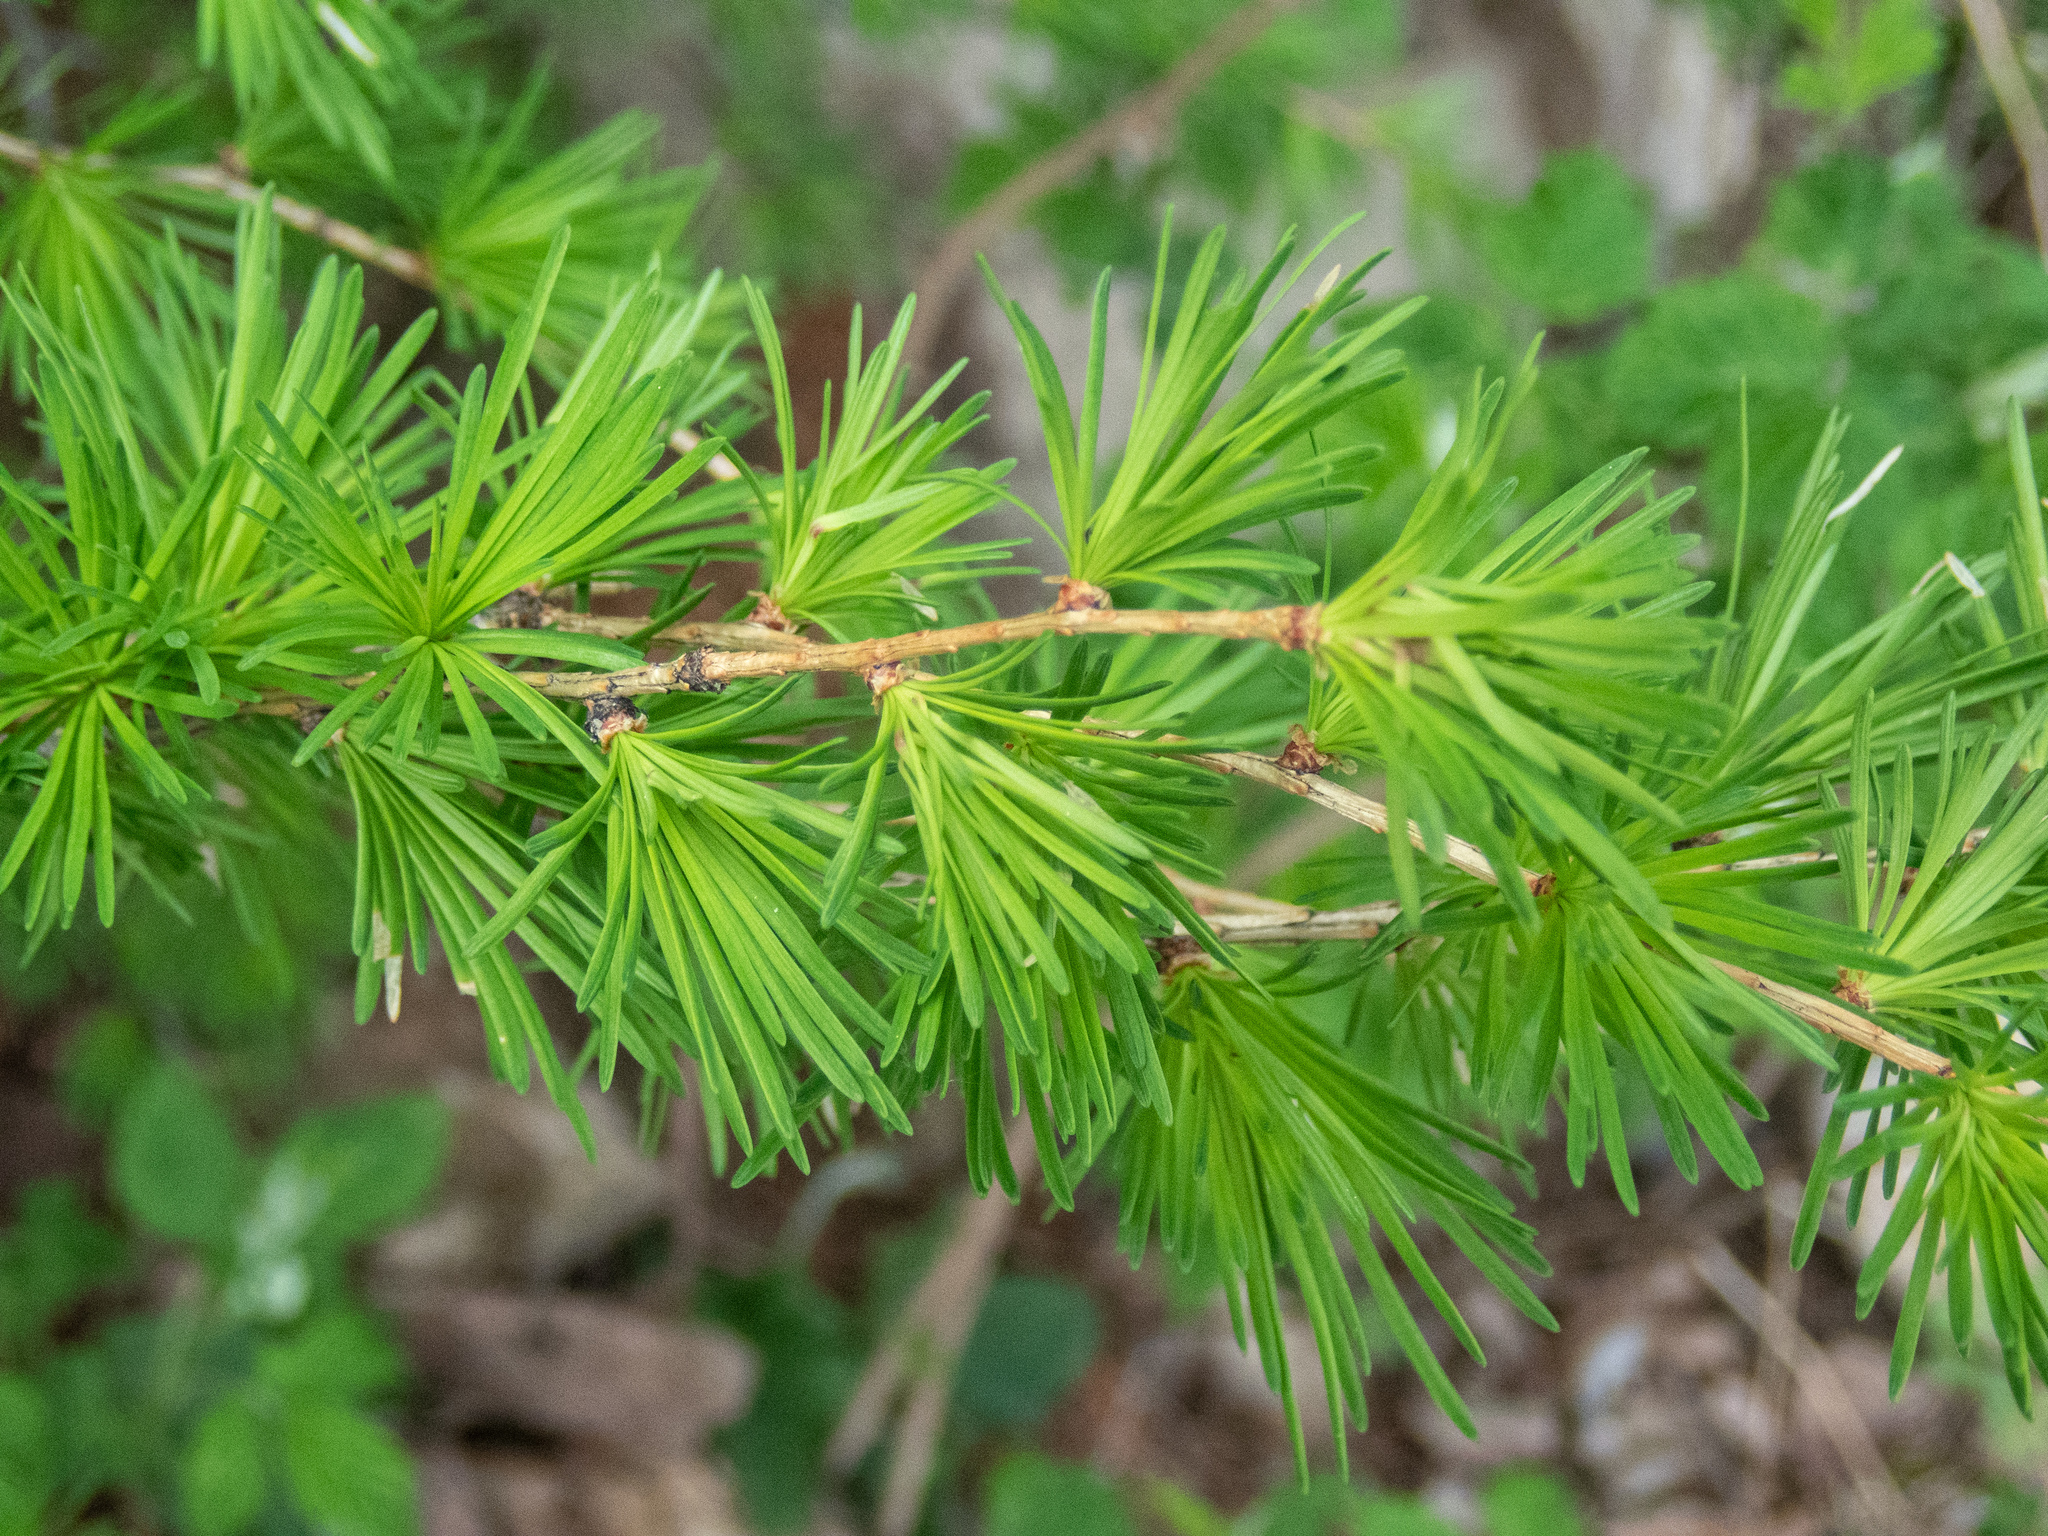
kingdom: Plantae
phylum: Tracheophyta
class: Pinopsida
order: Pinales
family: Pinaceae
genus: Larix
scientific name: Larix decidua
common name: European larch
